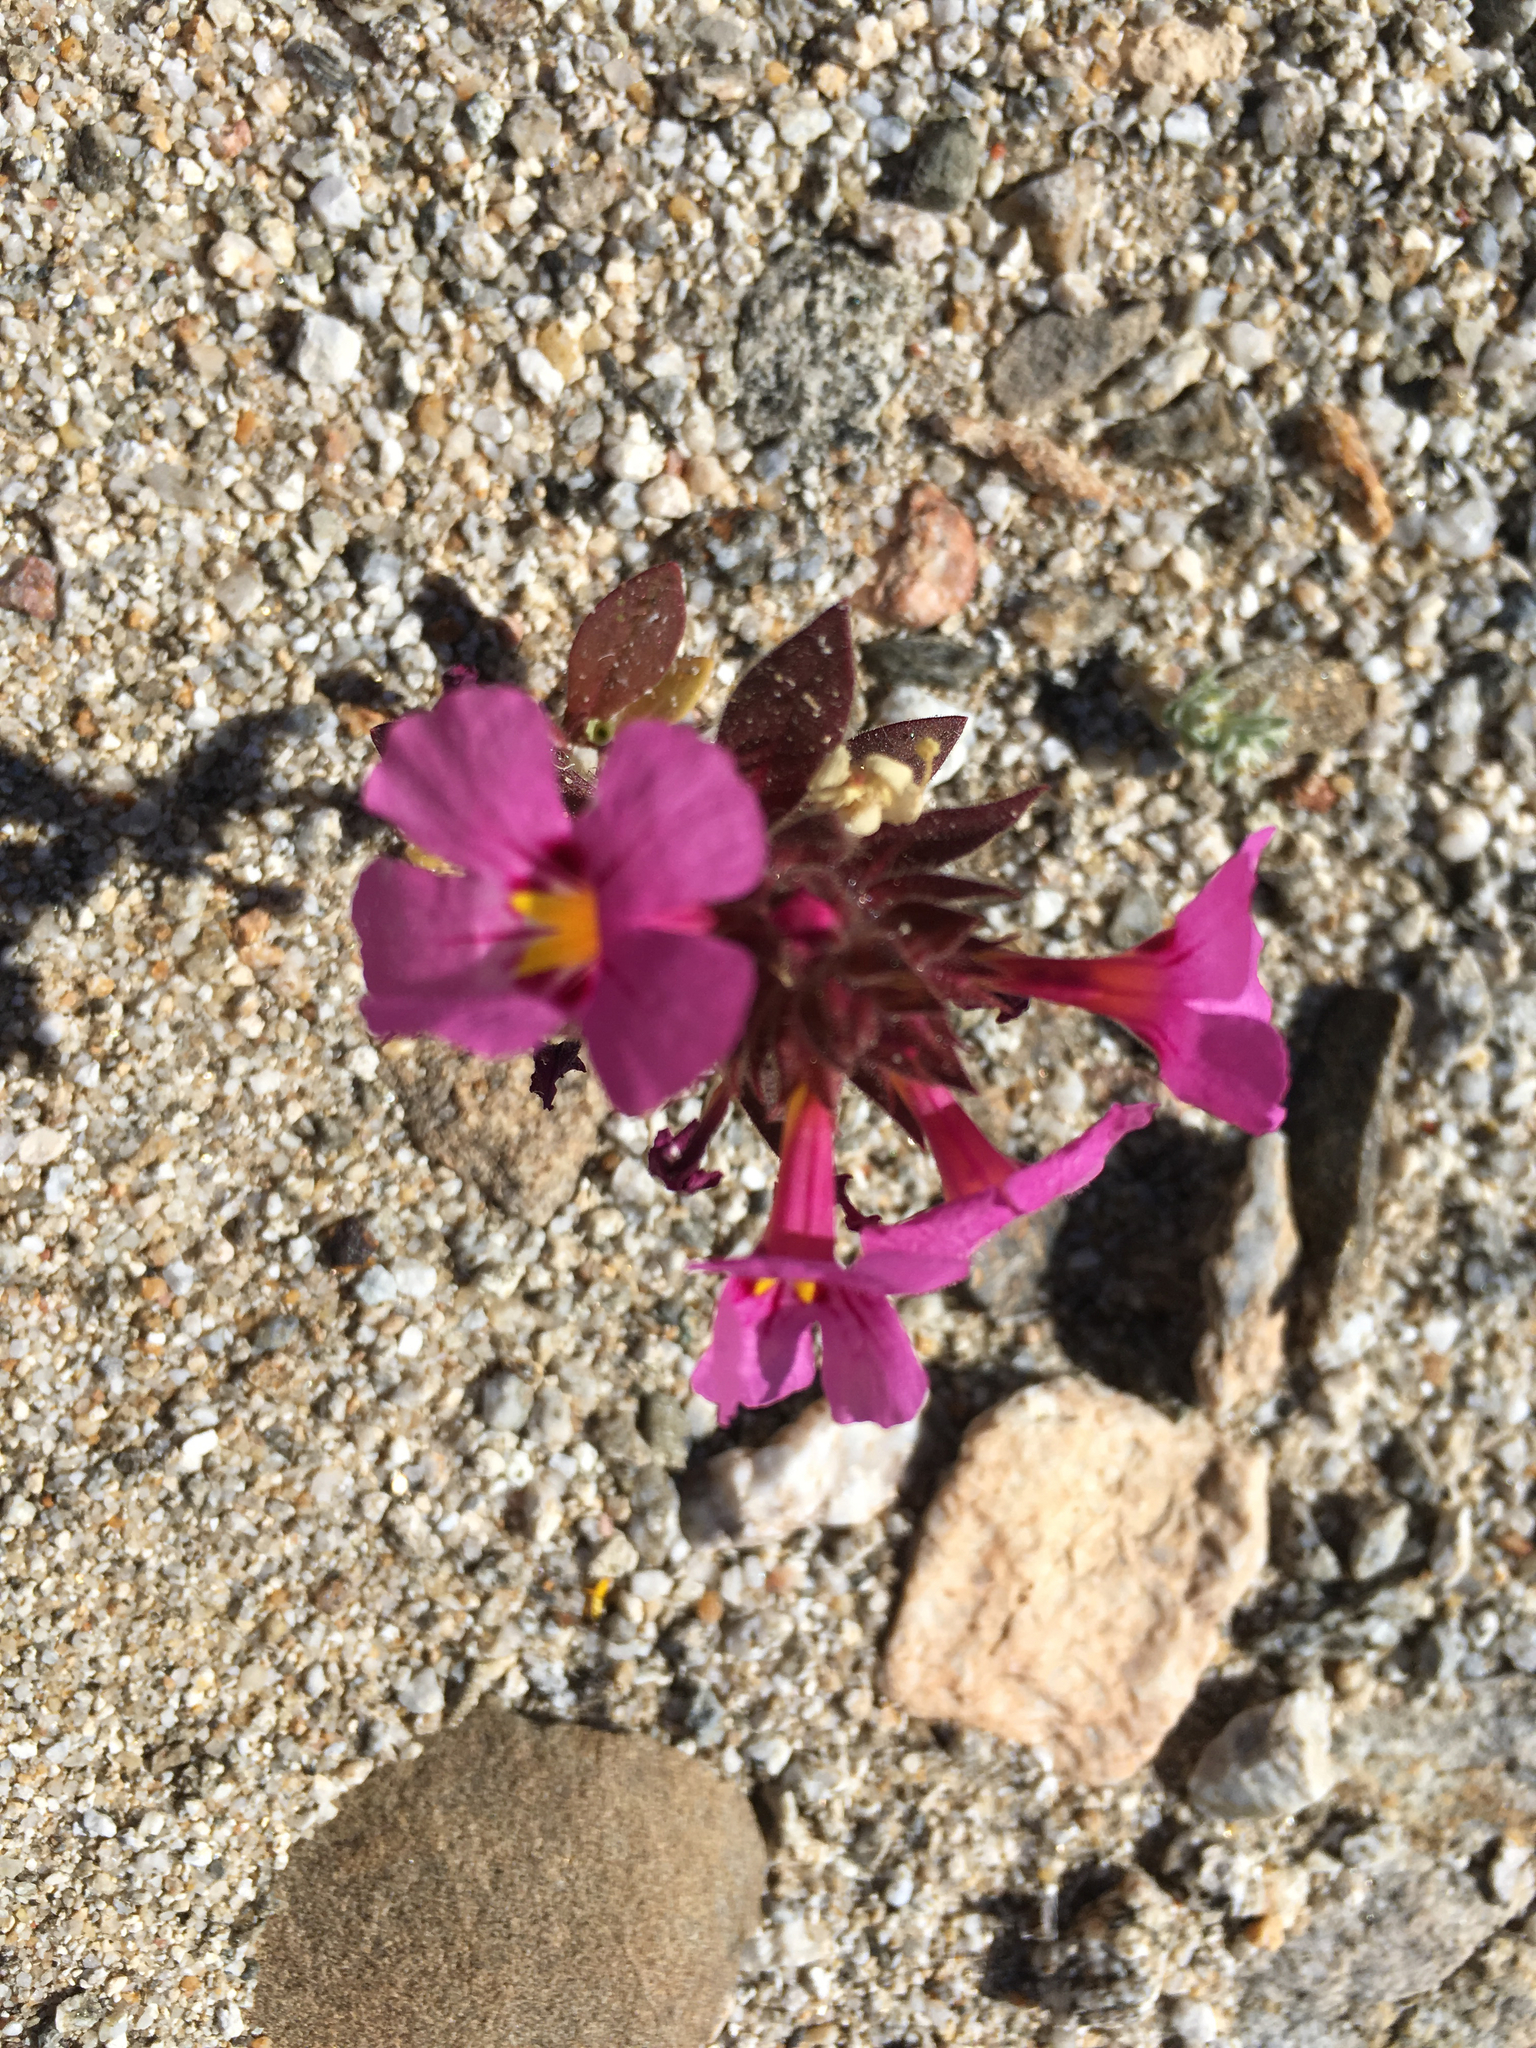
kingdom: Plantae
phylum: Tracheophyta
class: Magnoliopsida
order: Lamiales
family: Phrymaceae
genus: Diplacus
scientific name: Diplacus bigelovii
